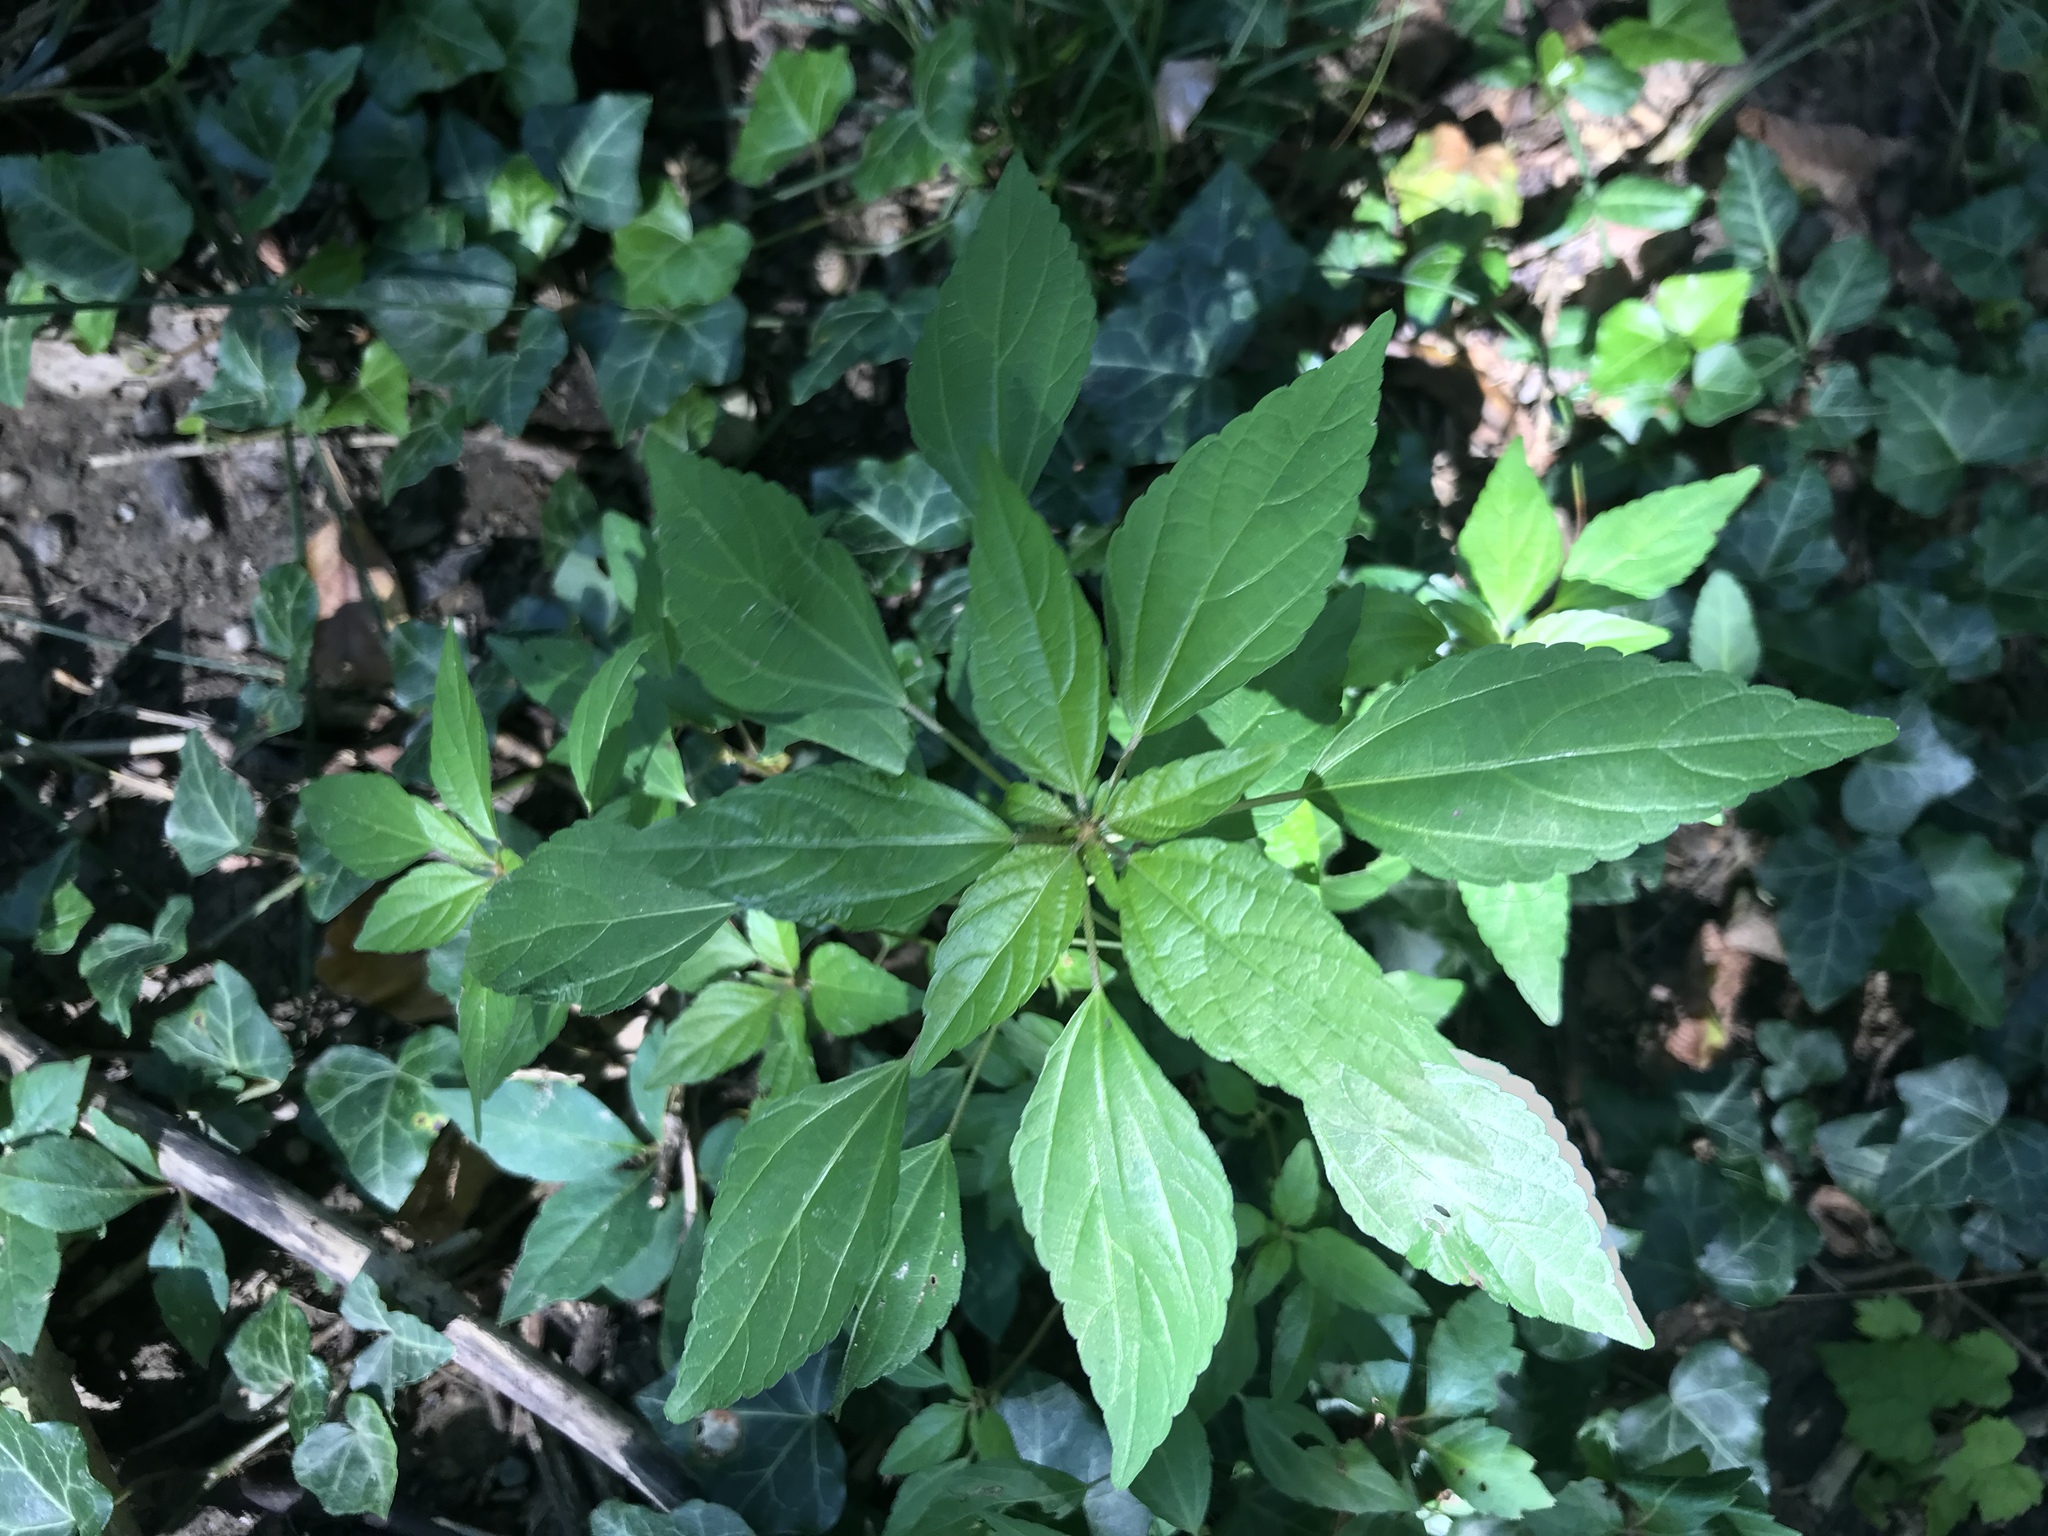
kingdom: Plantae
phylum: Tracheophyta
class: Magnoliopsida
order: Malpighiales
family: Euphorbiaceae
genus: Acalypha
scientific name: Acalypha rhomboidea
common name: Rhombic copperleaf
